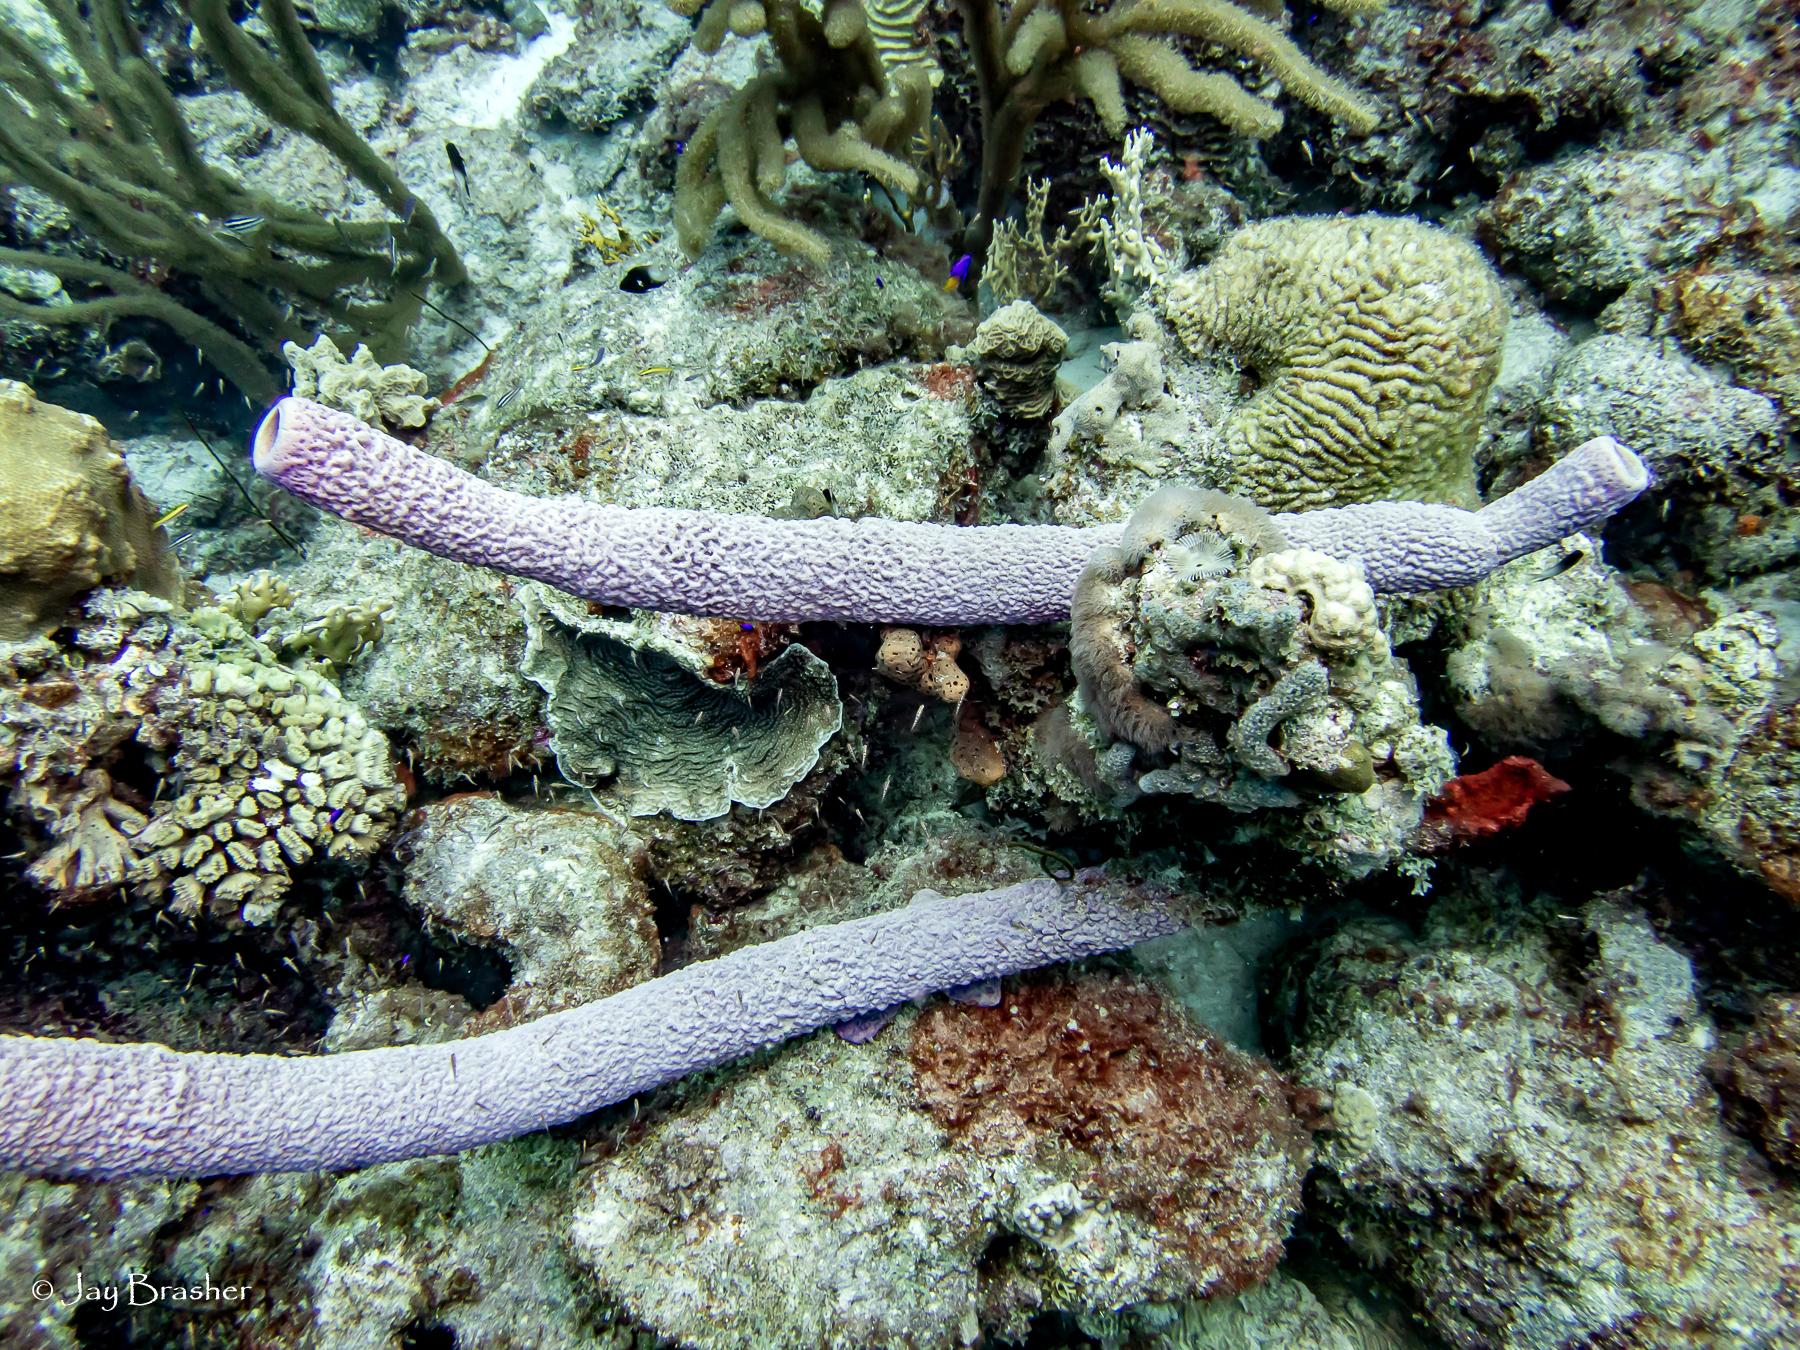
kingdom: Animalia
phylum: Porifera
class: Demospongiae
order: Verongiida
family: Aplysinidae
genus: Aplysina
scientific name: Aplysina archeri
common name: Stove-pipe sponge
